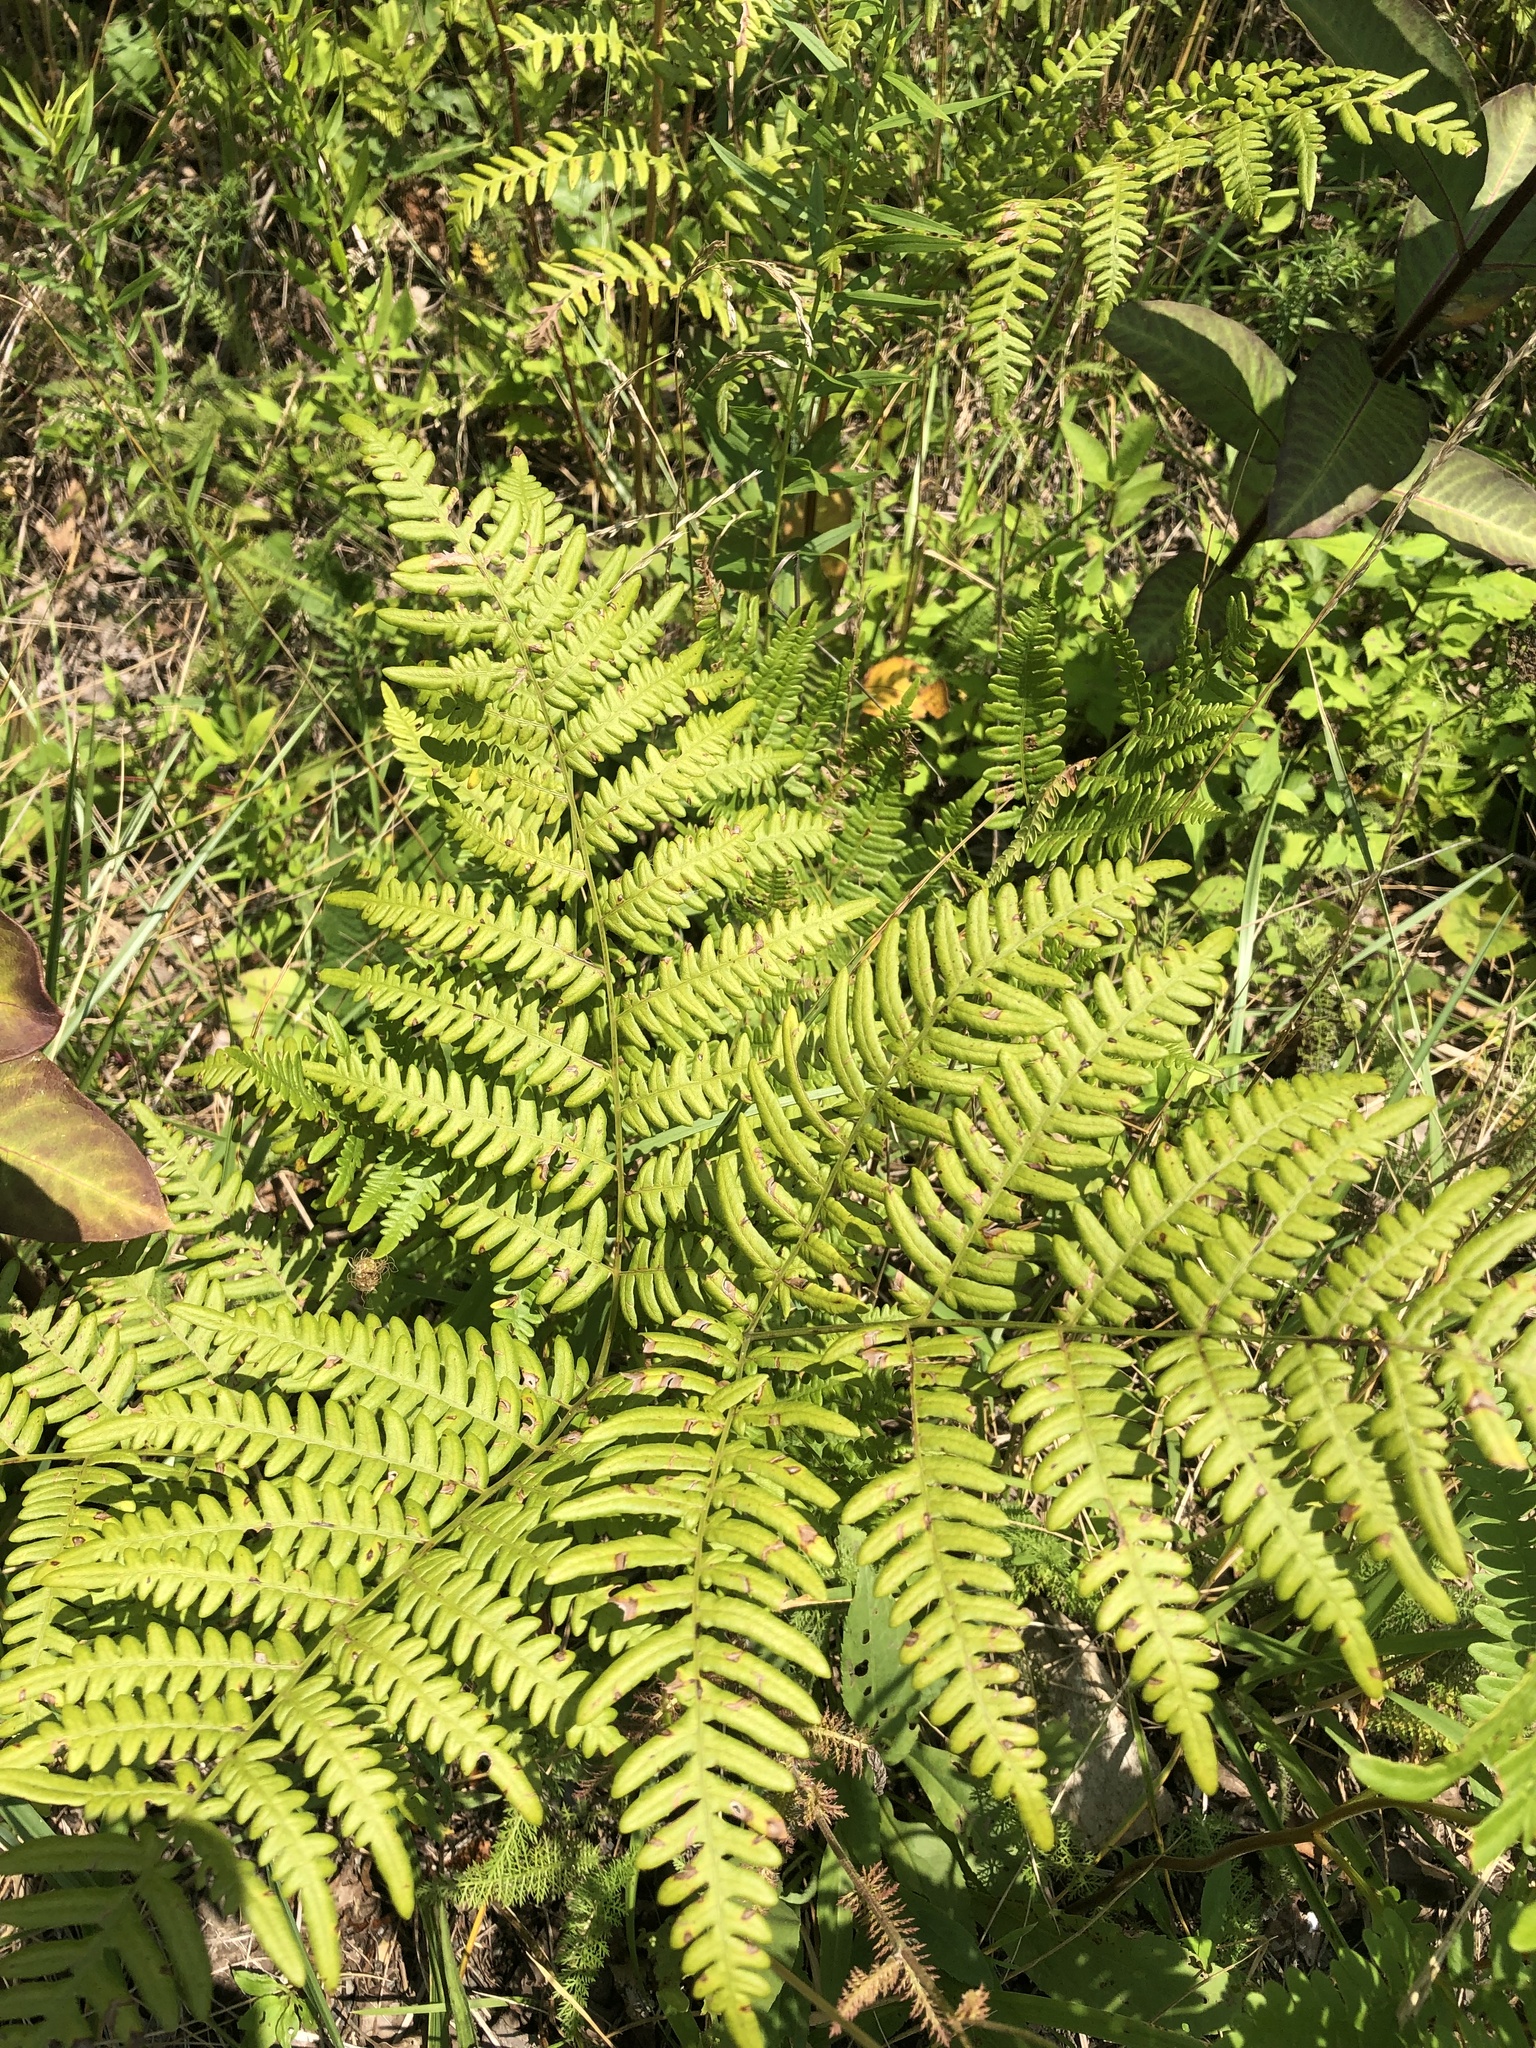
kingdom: Plantae
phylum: Tracheophyta
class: Polypodiopsida
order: Polypodiales
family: Dennstaedtiaceae
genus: Pteridium
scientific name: Pteridium aquilinum
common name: Bracken
